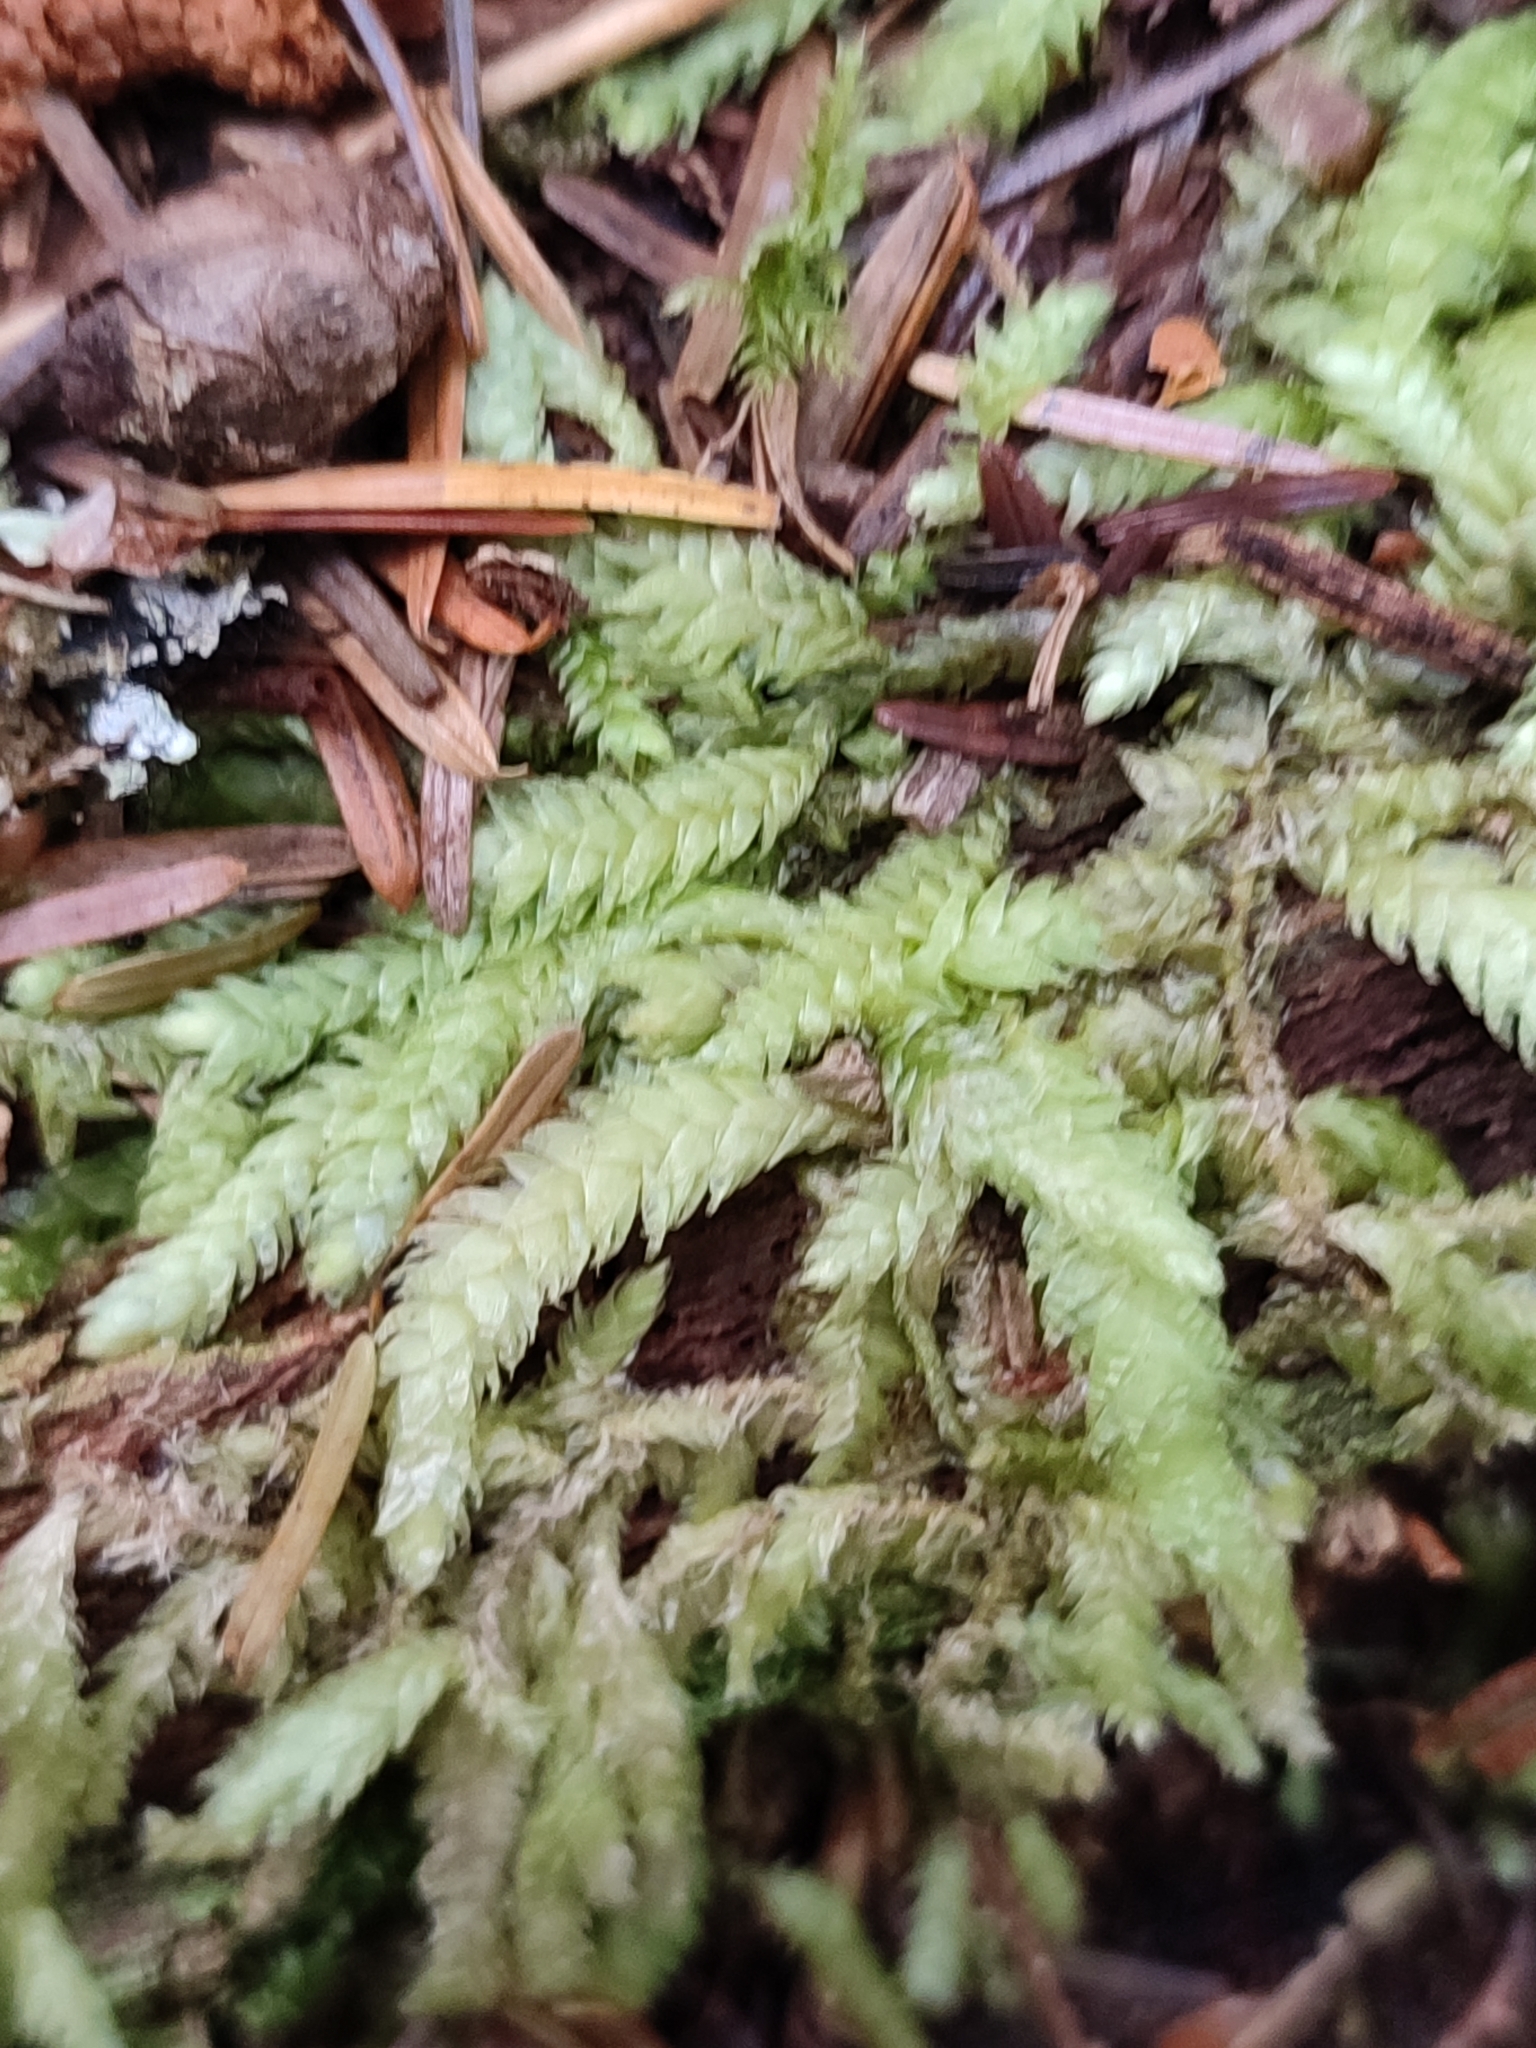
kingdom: Plantae
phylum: Bryophyta
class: Bryopsida
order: Hypnales
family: Plagiotheciaceae
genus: Plagiothecium
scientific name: Plagiothecium undulatum
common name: Waved silk-moss
